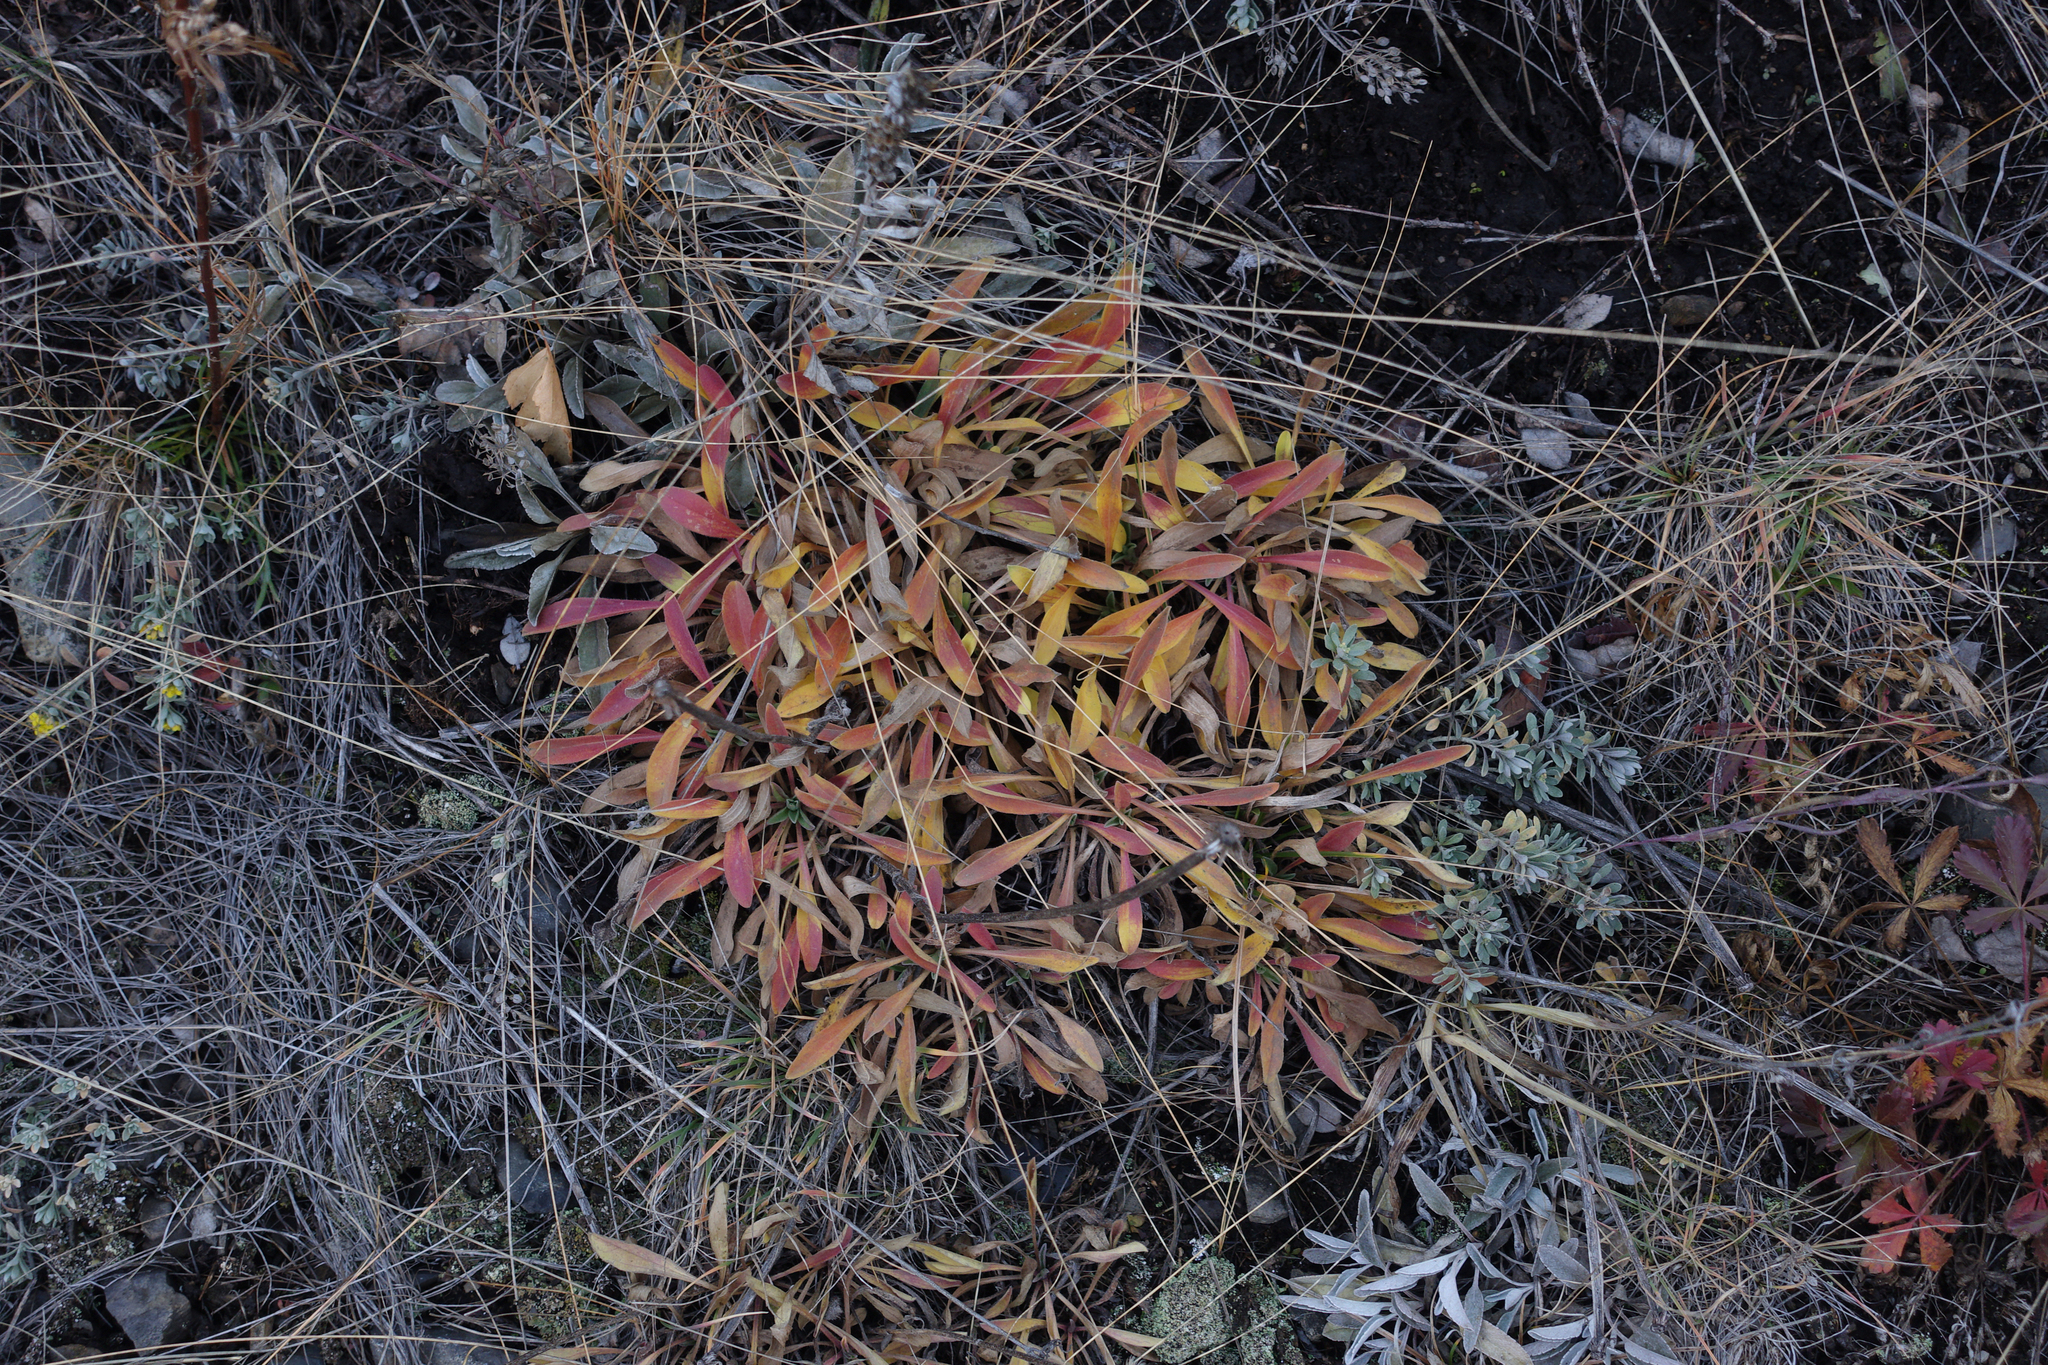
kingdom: Plantae
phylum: Tracheophyta
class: Magnoliopsida
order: Asterales
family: Asteraceae
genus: Aster
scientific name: Aster alpinus
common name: Alpine aster
